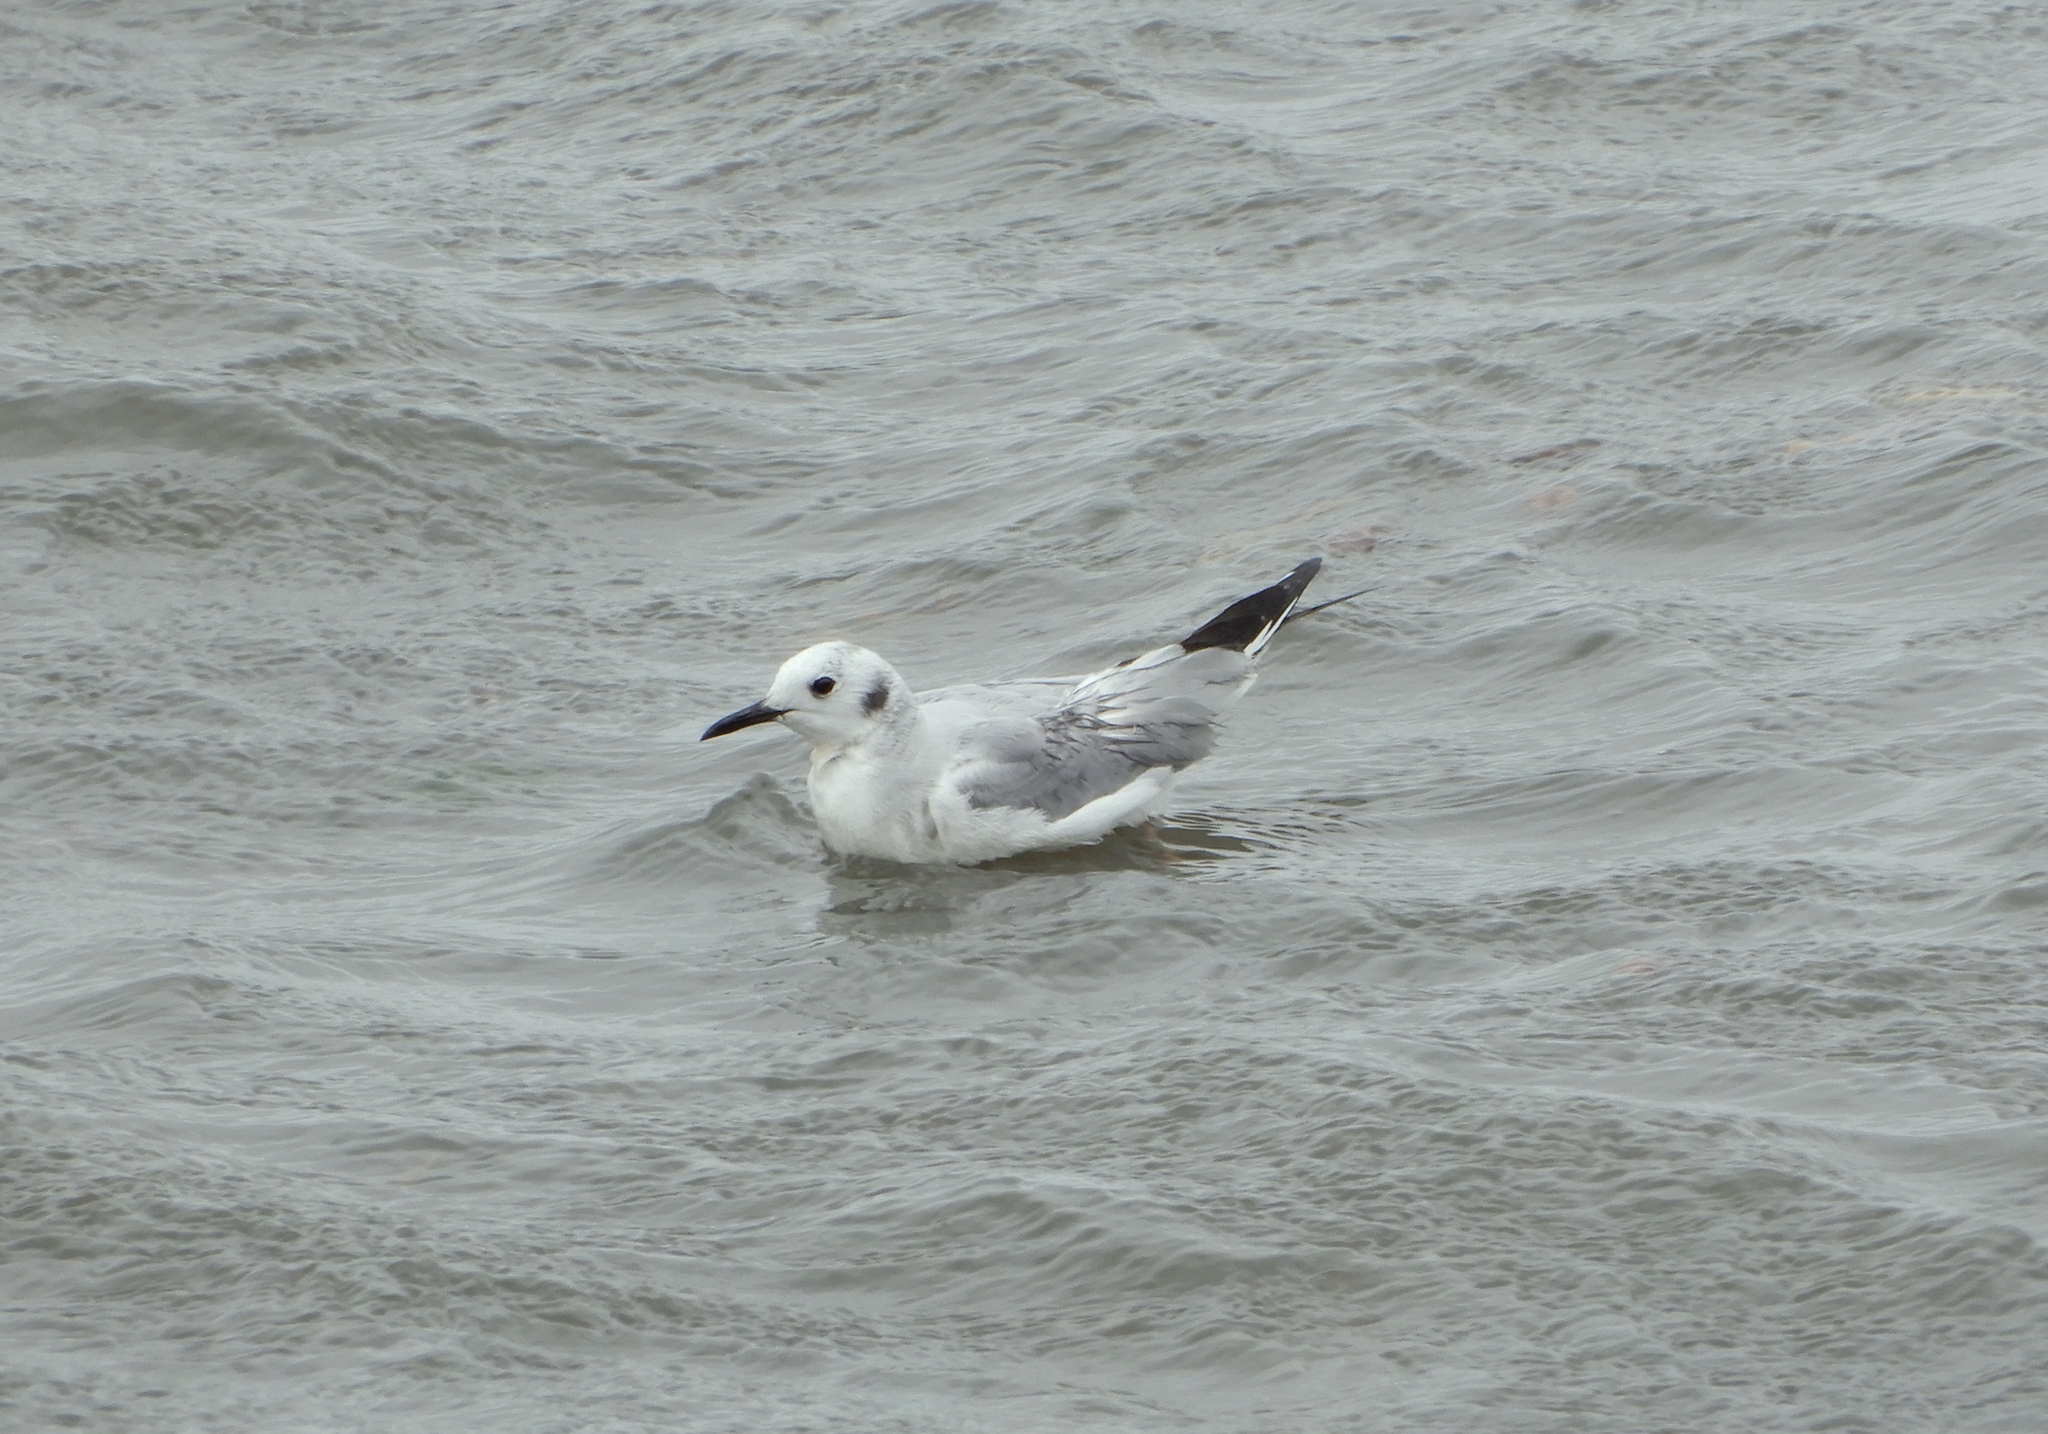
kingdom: Animalia
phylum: Chordata
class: Aves
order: Charadriiformes
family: Laridae
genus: Chroicocephalus
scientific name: Chroicocephalus philadelphia
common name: Bonaparte's gull
